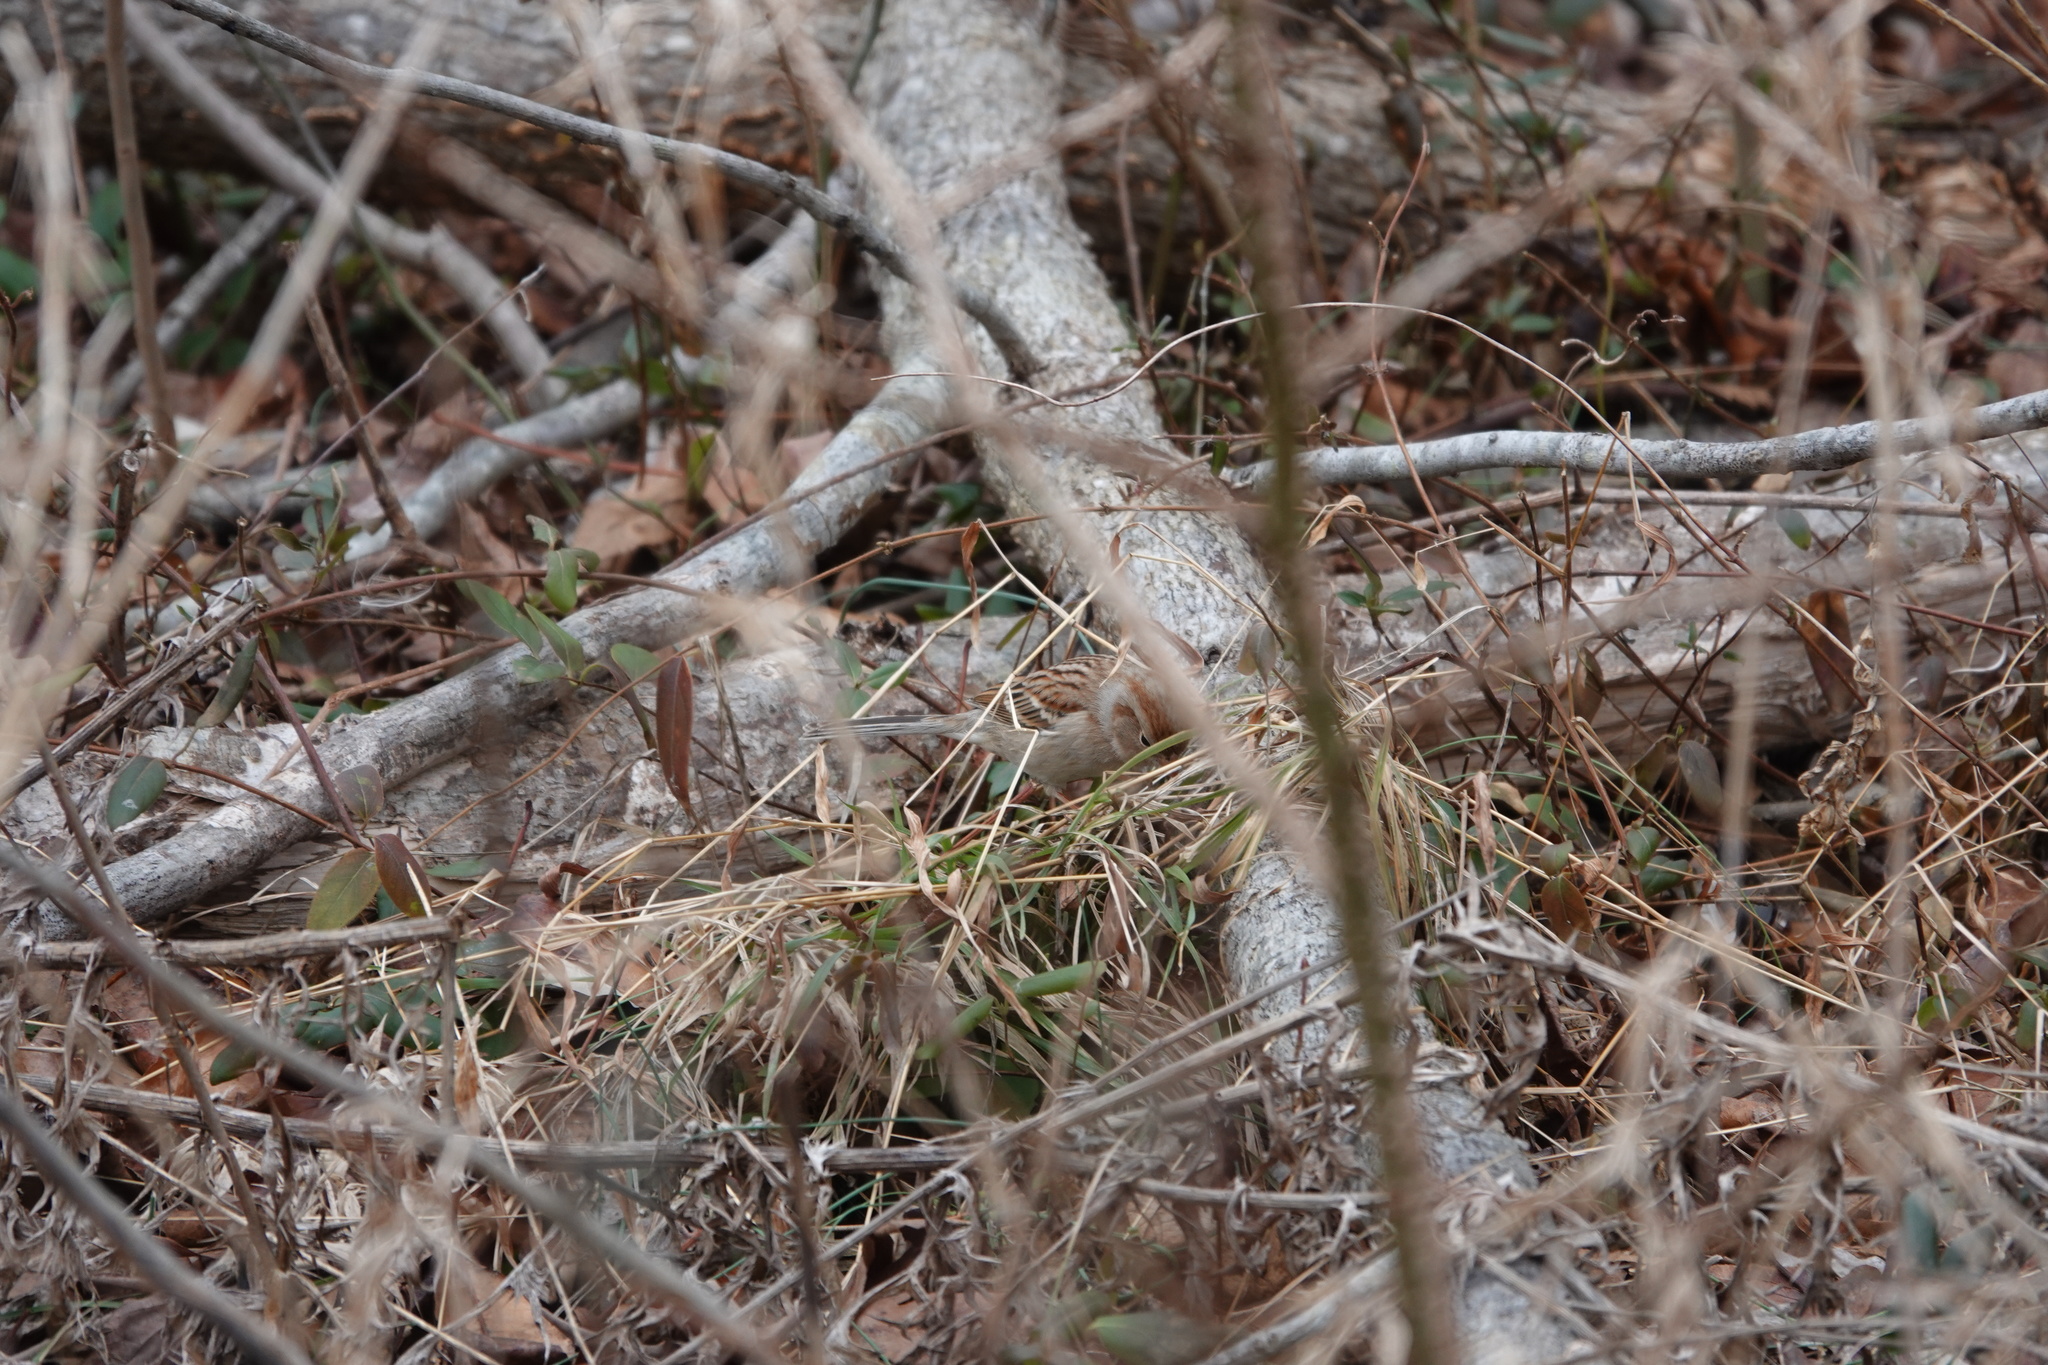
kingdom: Animalia
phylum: Chordata
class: Aves
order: Passeriformes
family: Passerellidae
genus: Spizella
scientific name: Spizella pusilla
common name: Field sparrow
